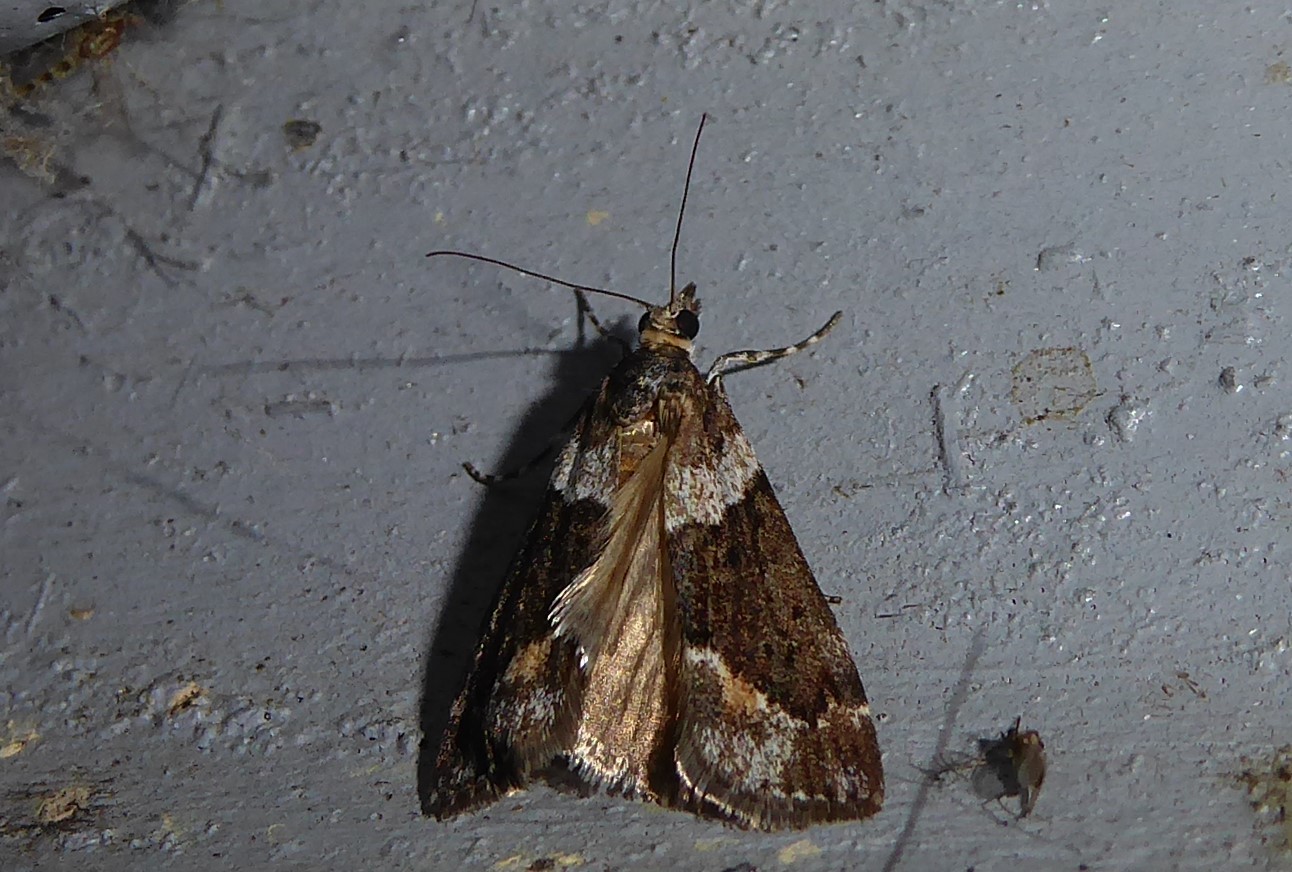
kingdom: Animalia
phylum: Arthropoda
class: Insecta
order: Lepidoptera
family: Crambidae
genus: Eudonia
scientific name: Eudonia submarginalis
